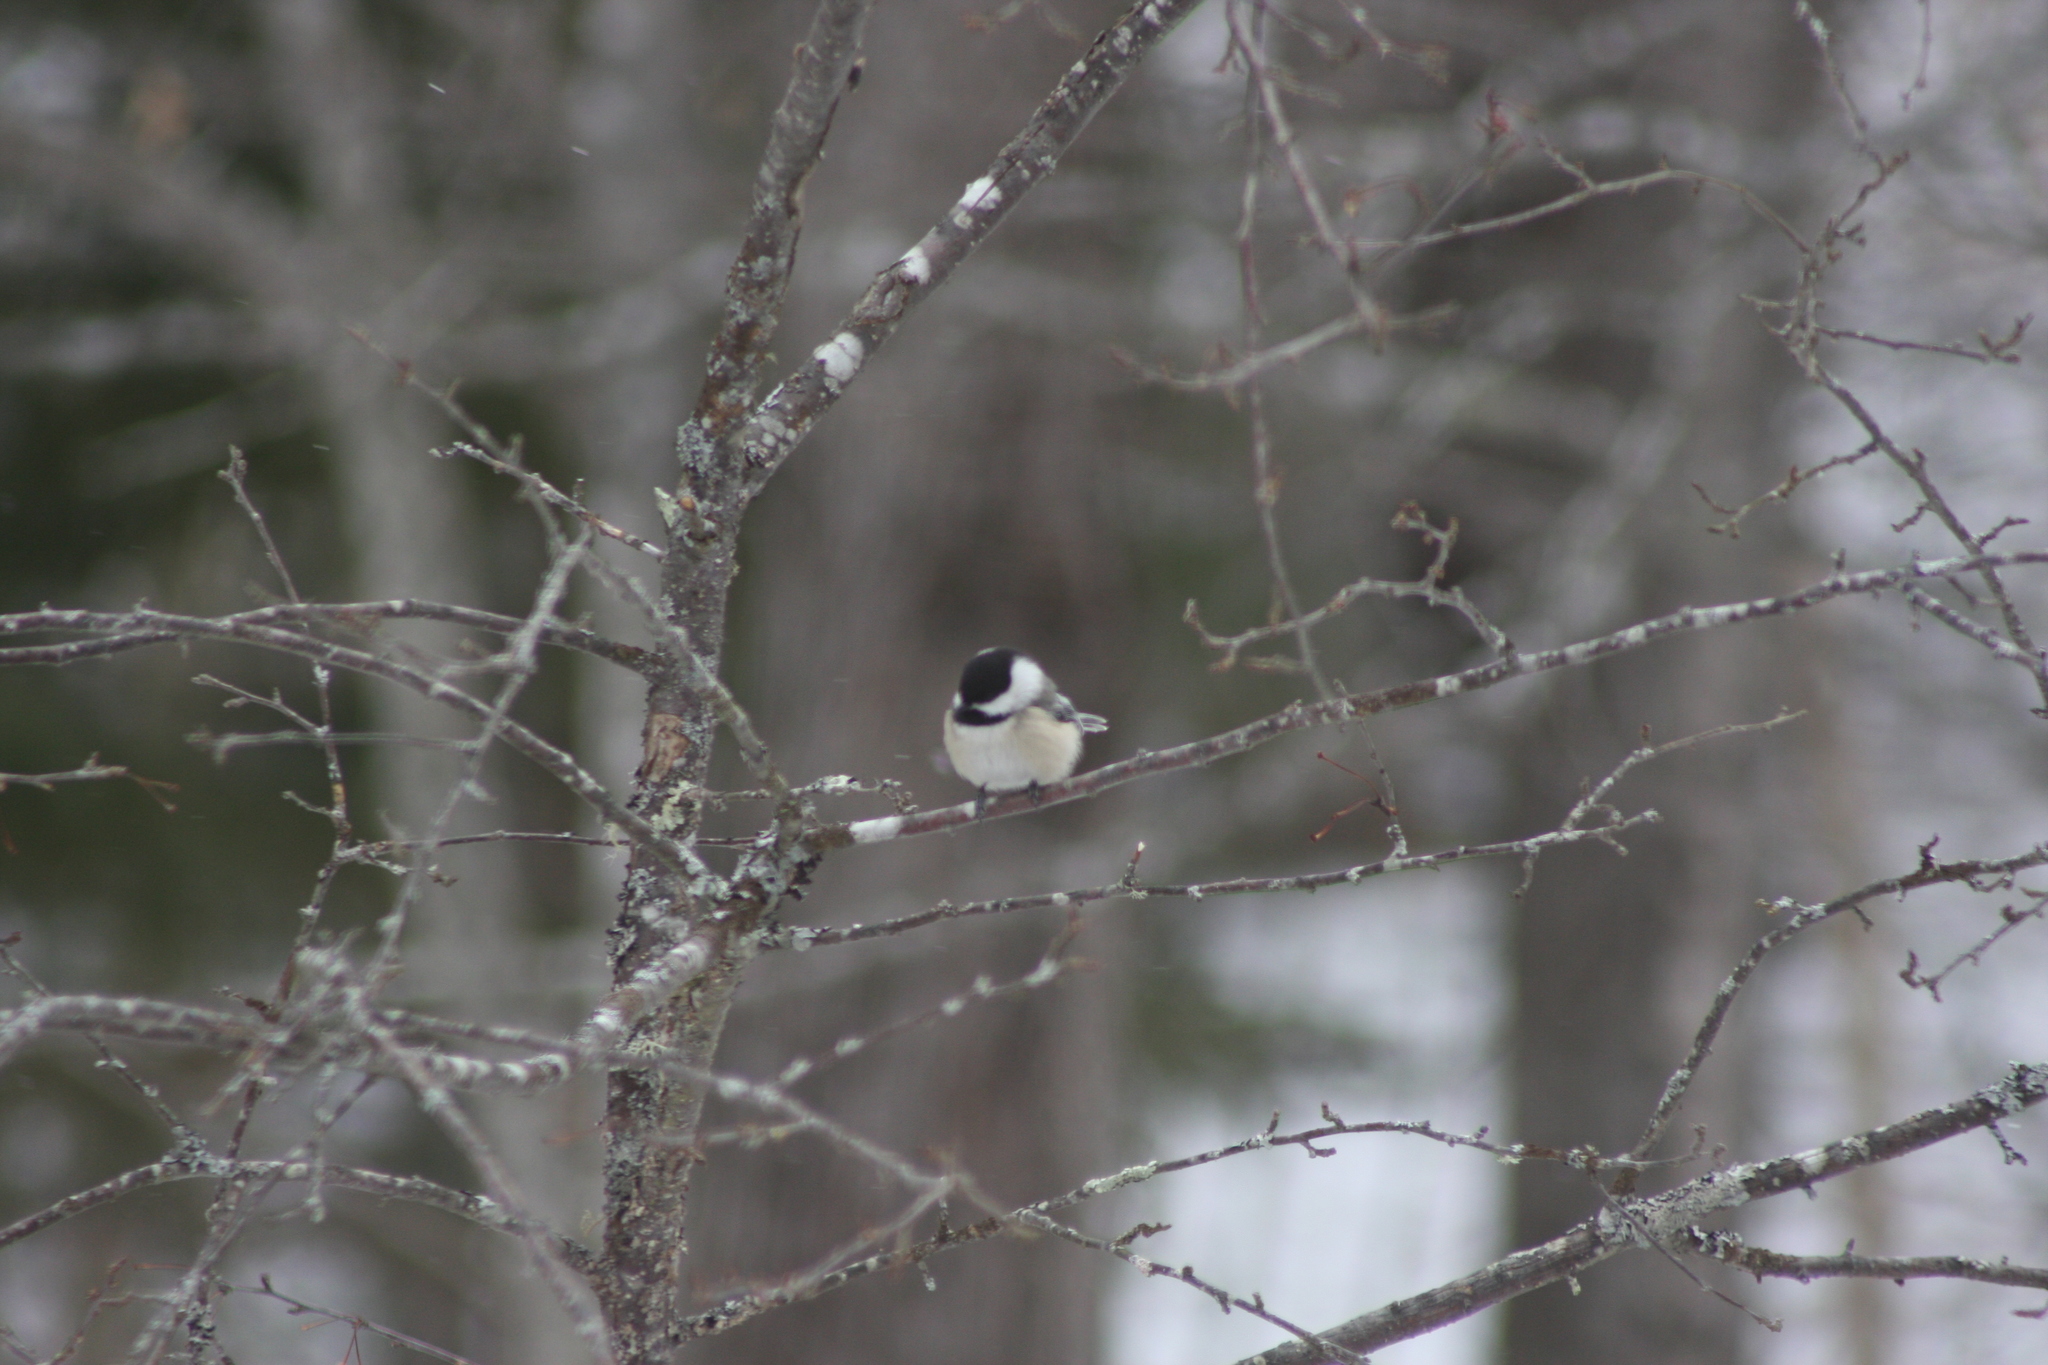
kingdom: Animalia
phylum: Chordata
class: Aves
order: Passeriformes
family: Paridae
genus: Poecile
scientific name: Poecile atricapillus
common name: Black-capped chickadee
